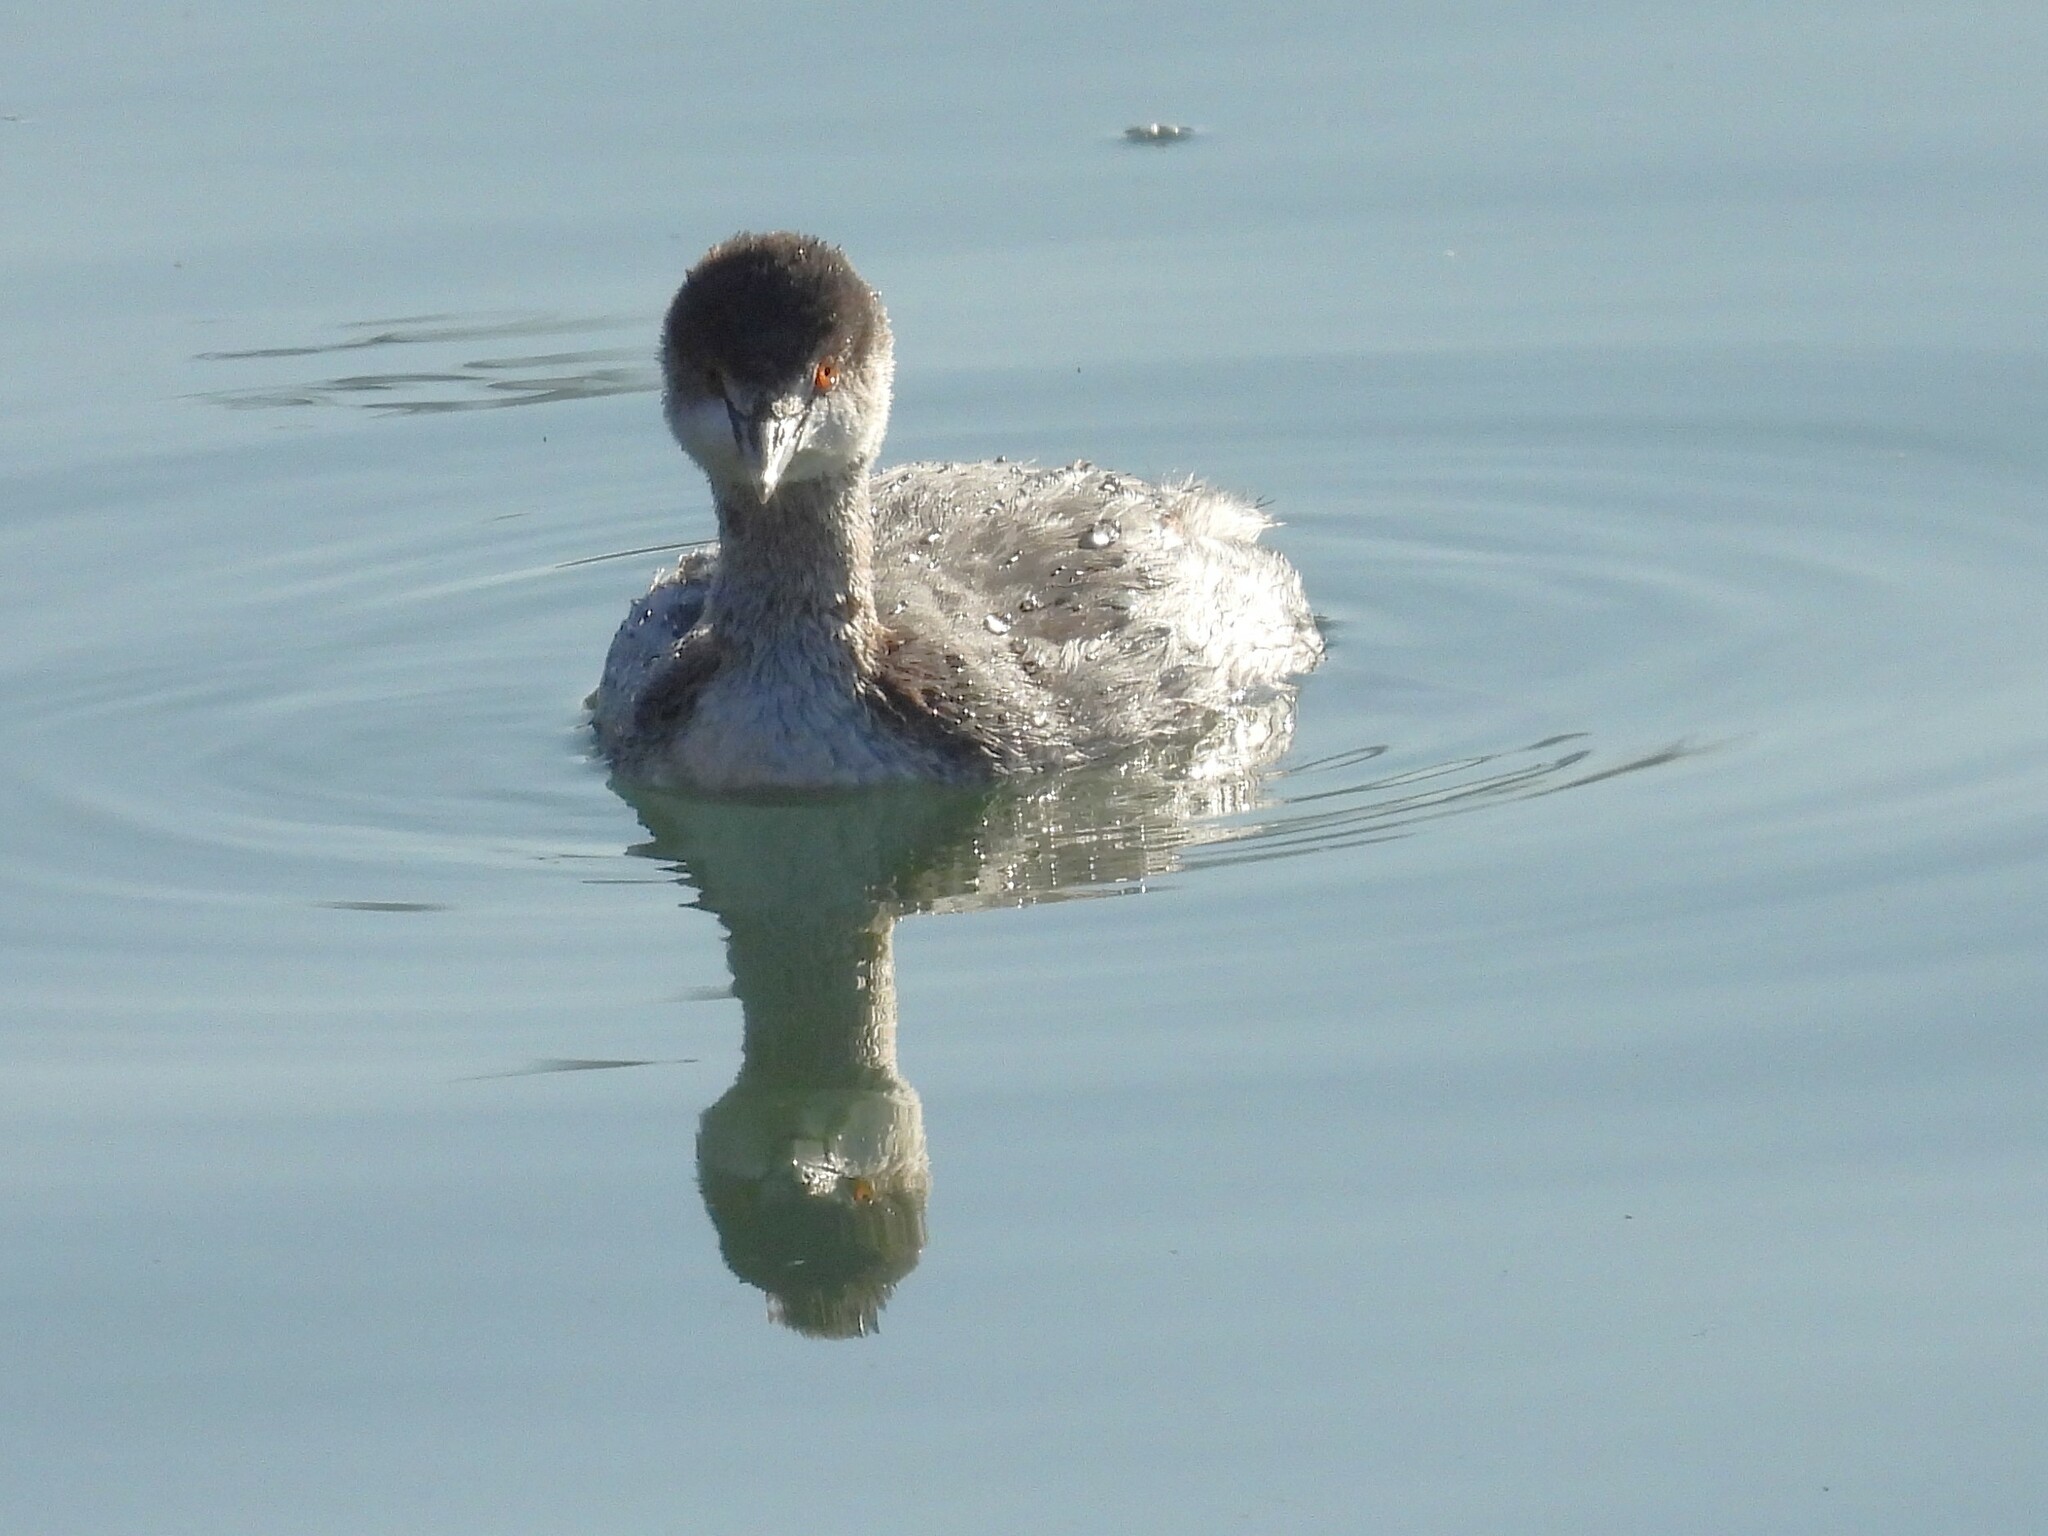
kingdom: Animalia
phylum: Chordata
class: Aves
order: Podicipediformes
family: Podicipedidae
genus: Podiceps
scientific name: Podiceps nigricollis
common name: Black-necked grebe
